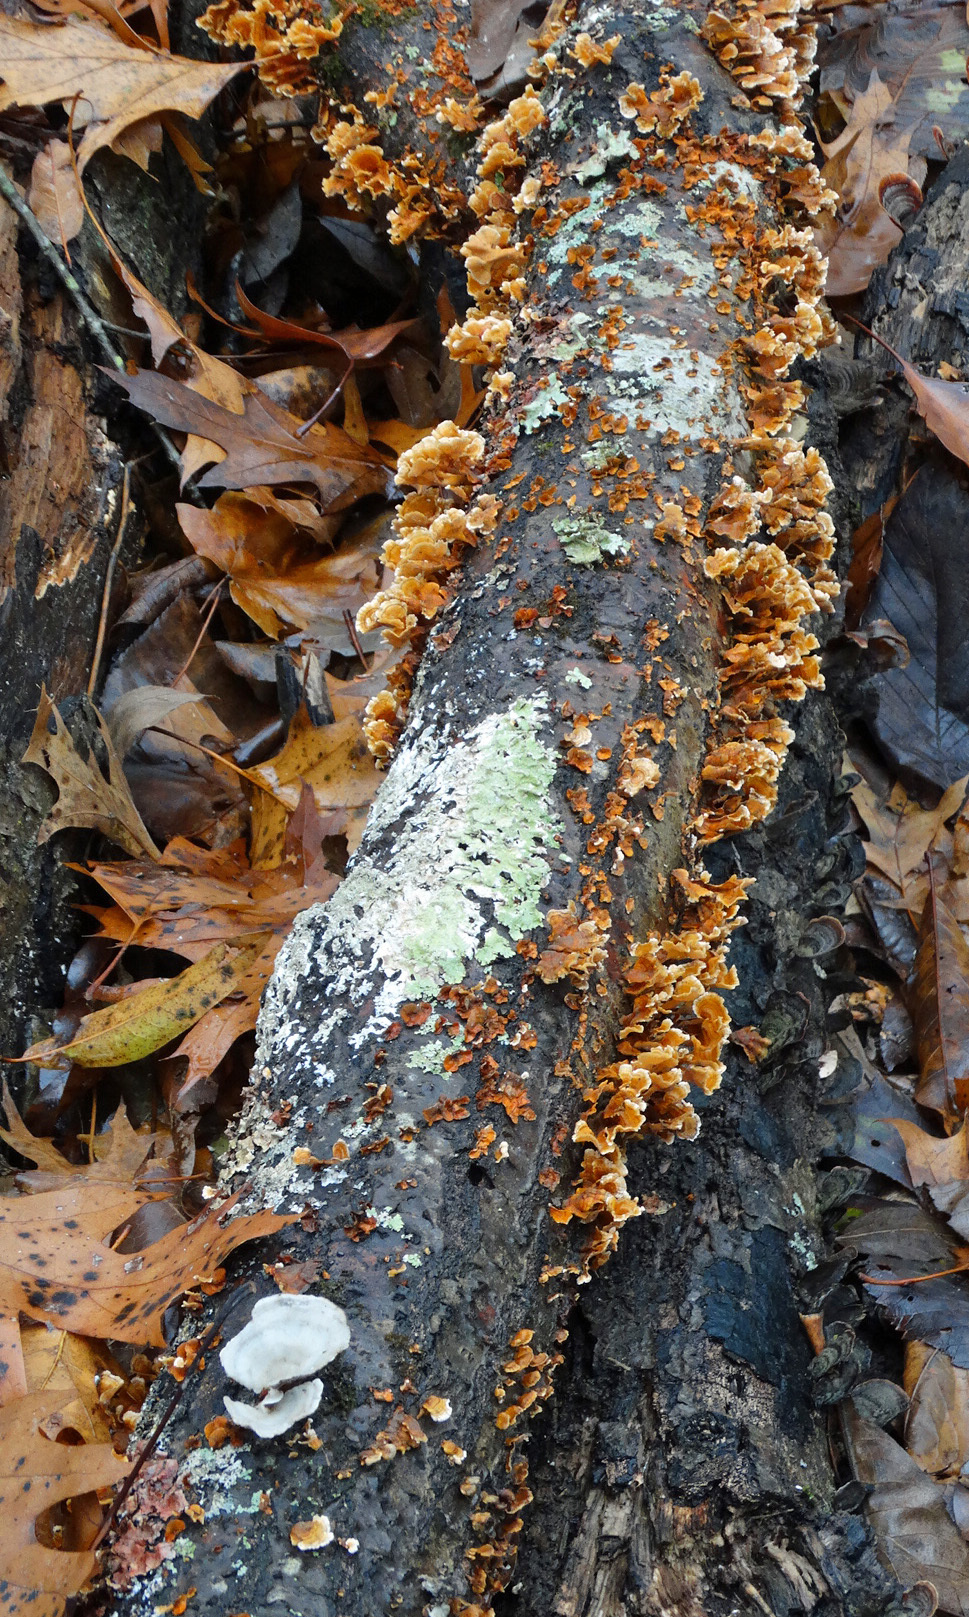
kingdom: Fungi
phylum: Basidiomycota
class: Agaricomycetes
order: Russulales
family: Stereaceae
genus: Stereum
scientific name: Stereum complicatum
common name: Crowded parchment
